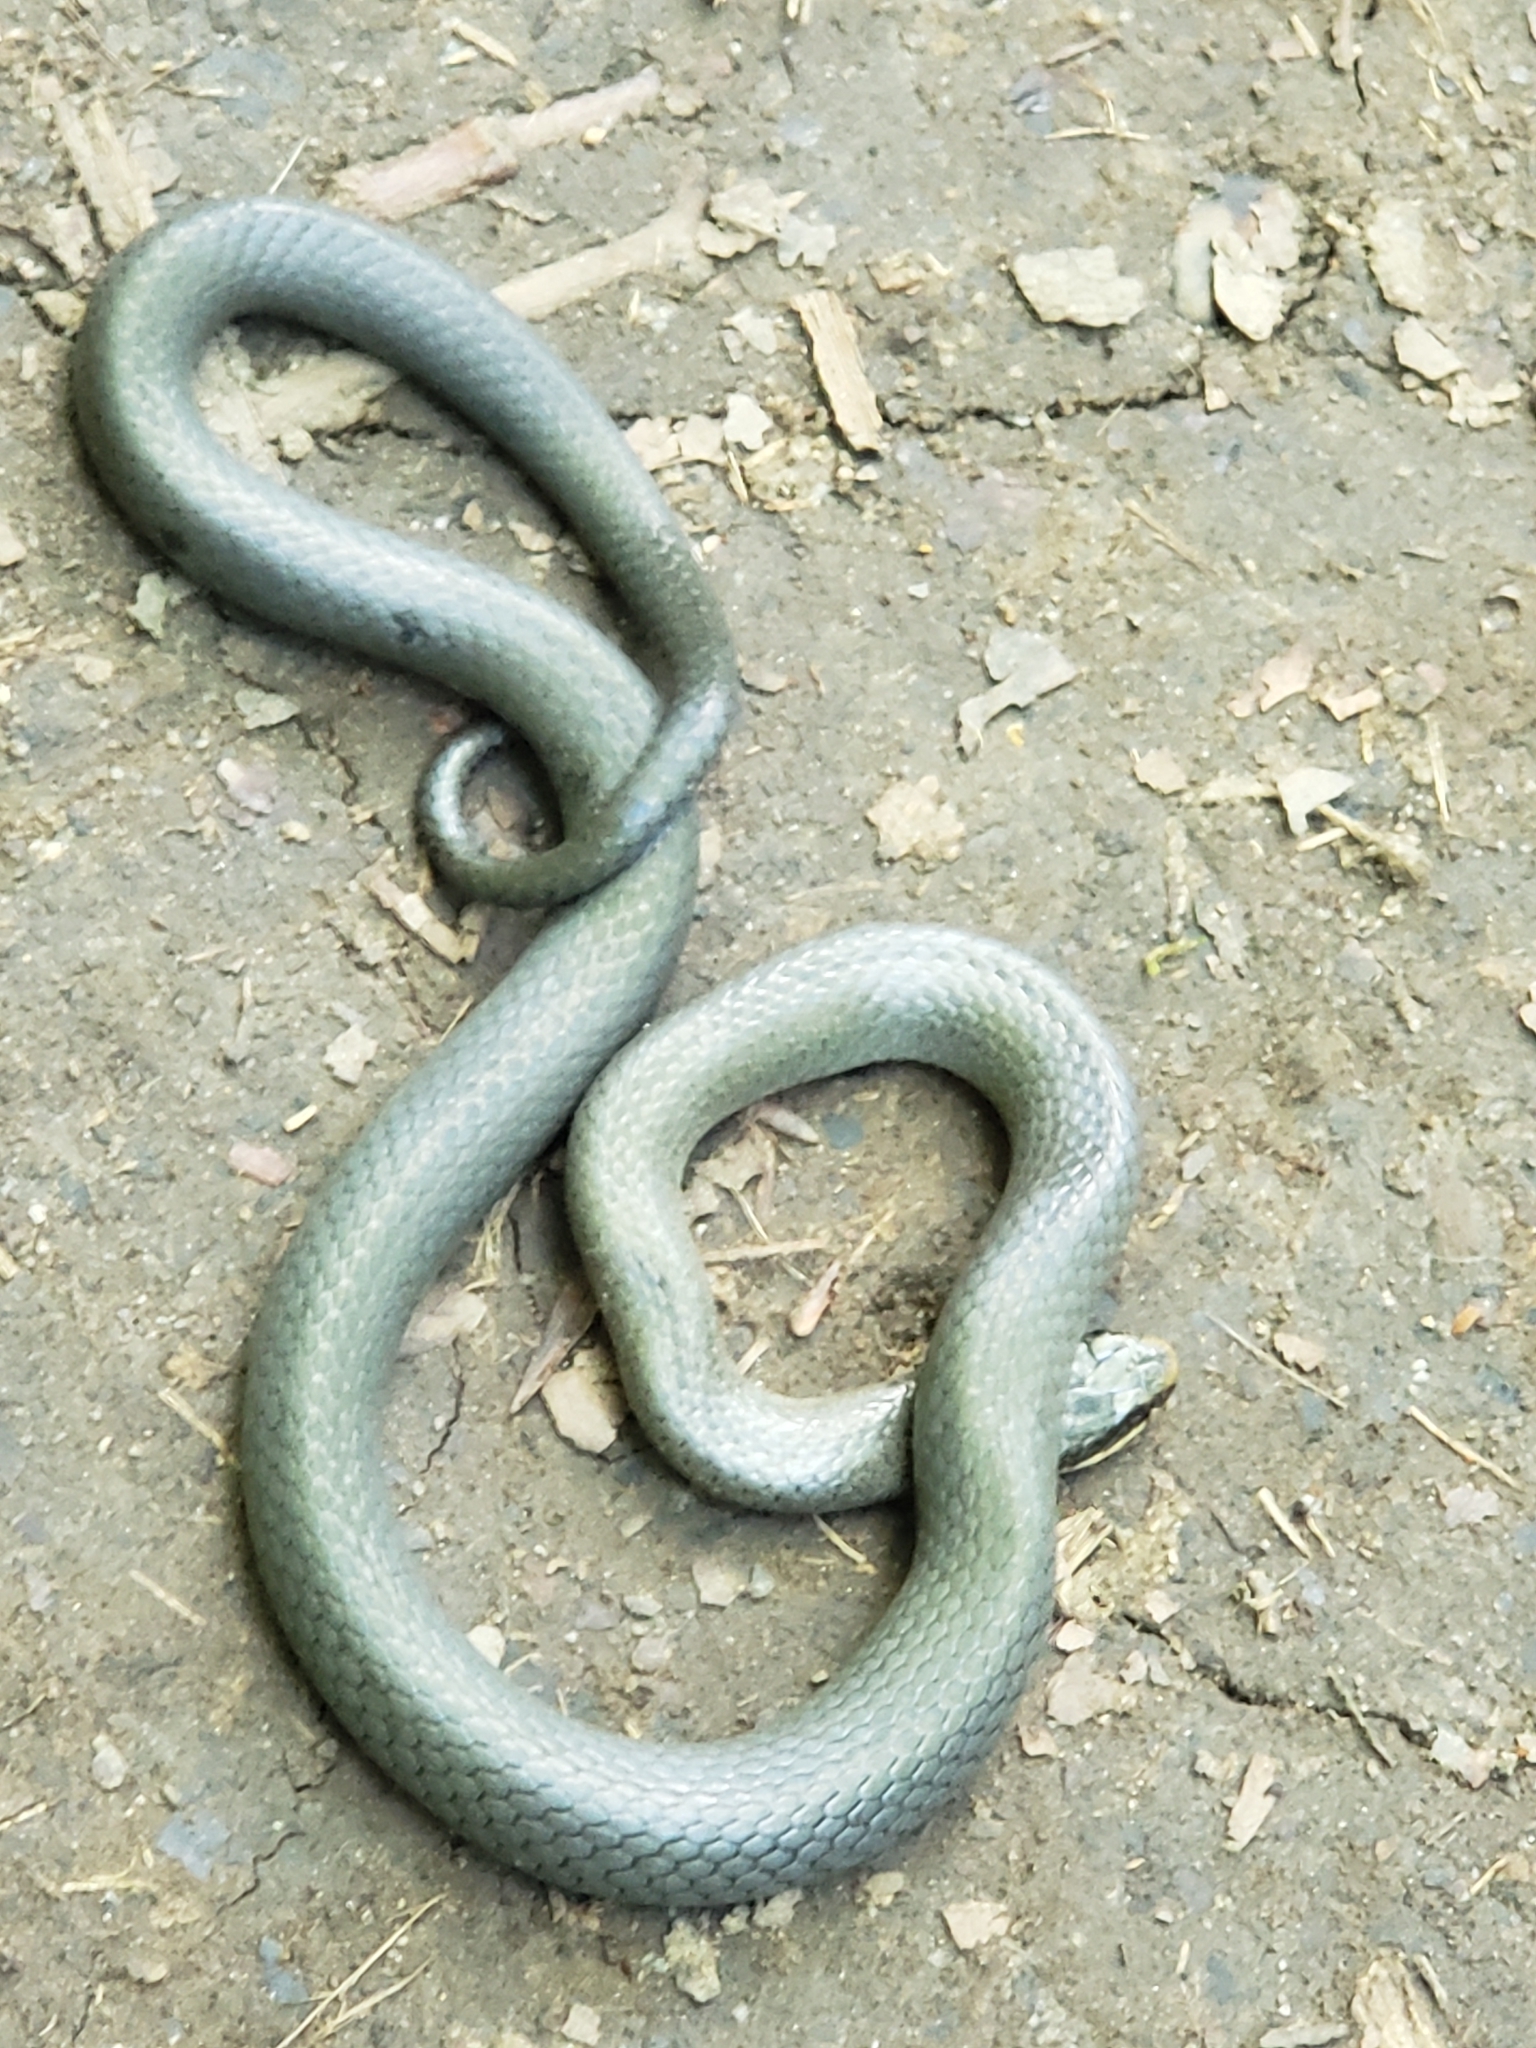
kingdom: Animalia
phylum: Chordata
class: Squamata
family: Colubridae
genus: Diadophis
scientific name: Diadophis punctatus
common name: Ringneck snake
